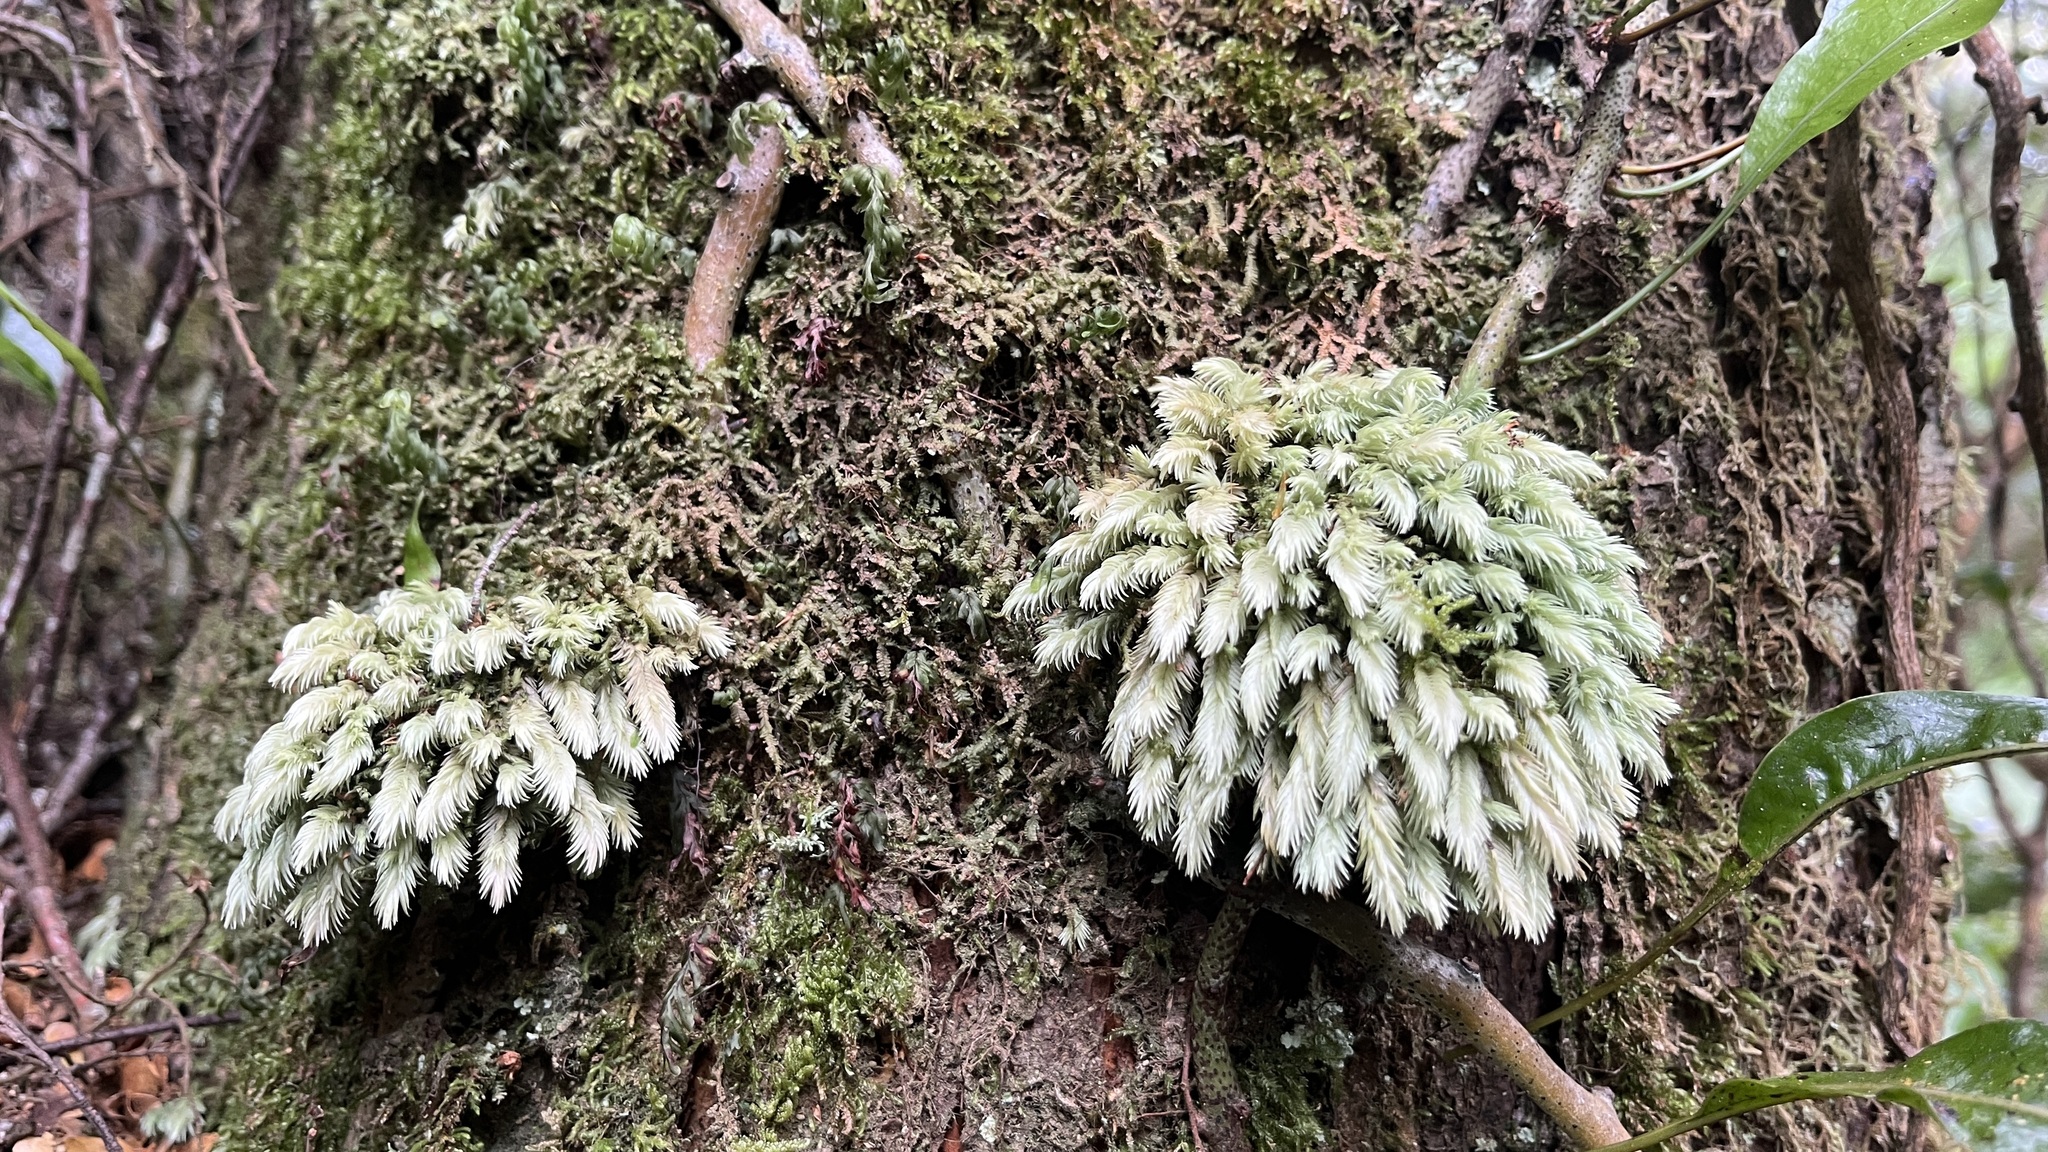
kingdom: Plantae
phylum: Bryophyta
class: Bryopsida
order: Dicranales
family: Leucobryaceae
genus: Leucobryum
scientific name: Leucobryum javense
